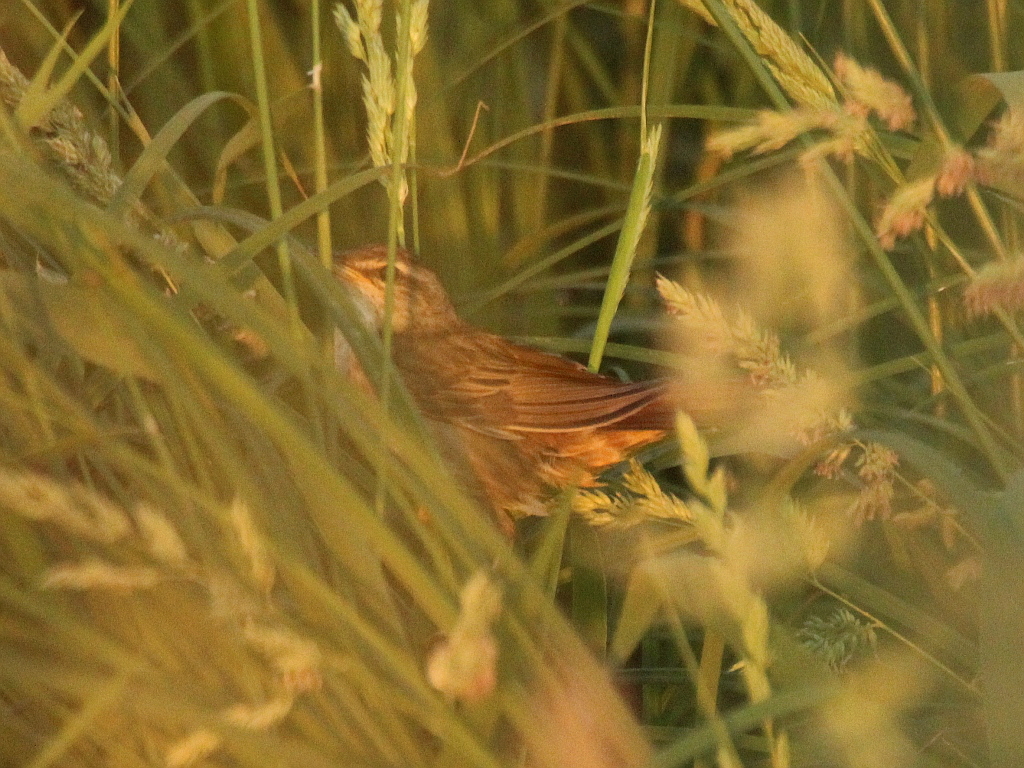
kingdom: Animalia
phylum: Chordata
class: Aves
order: Passeriformes
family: Locustellidae
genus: Locustella
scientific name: Locustella certhiola
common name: Pallas's grasshopper warbler
